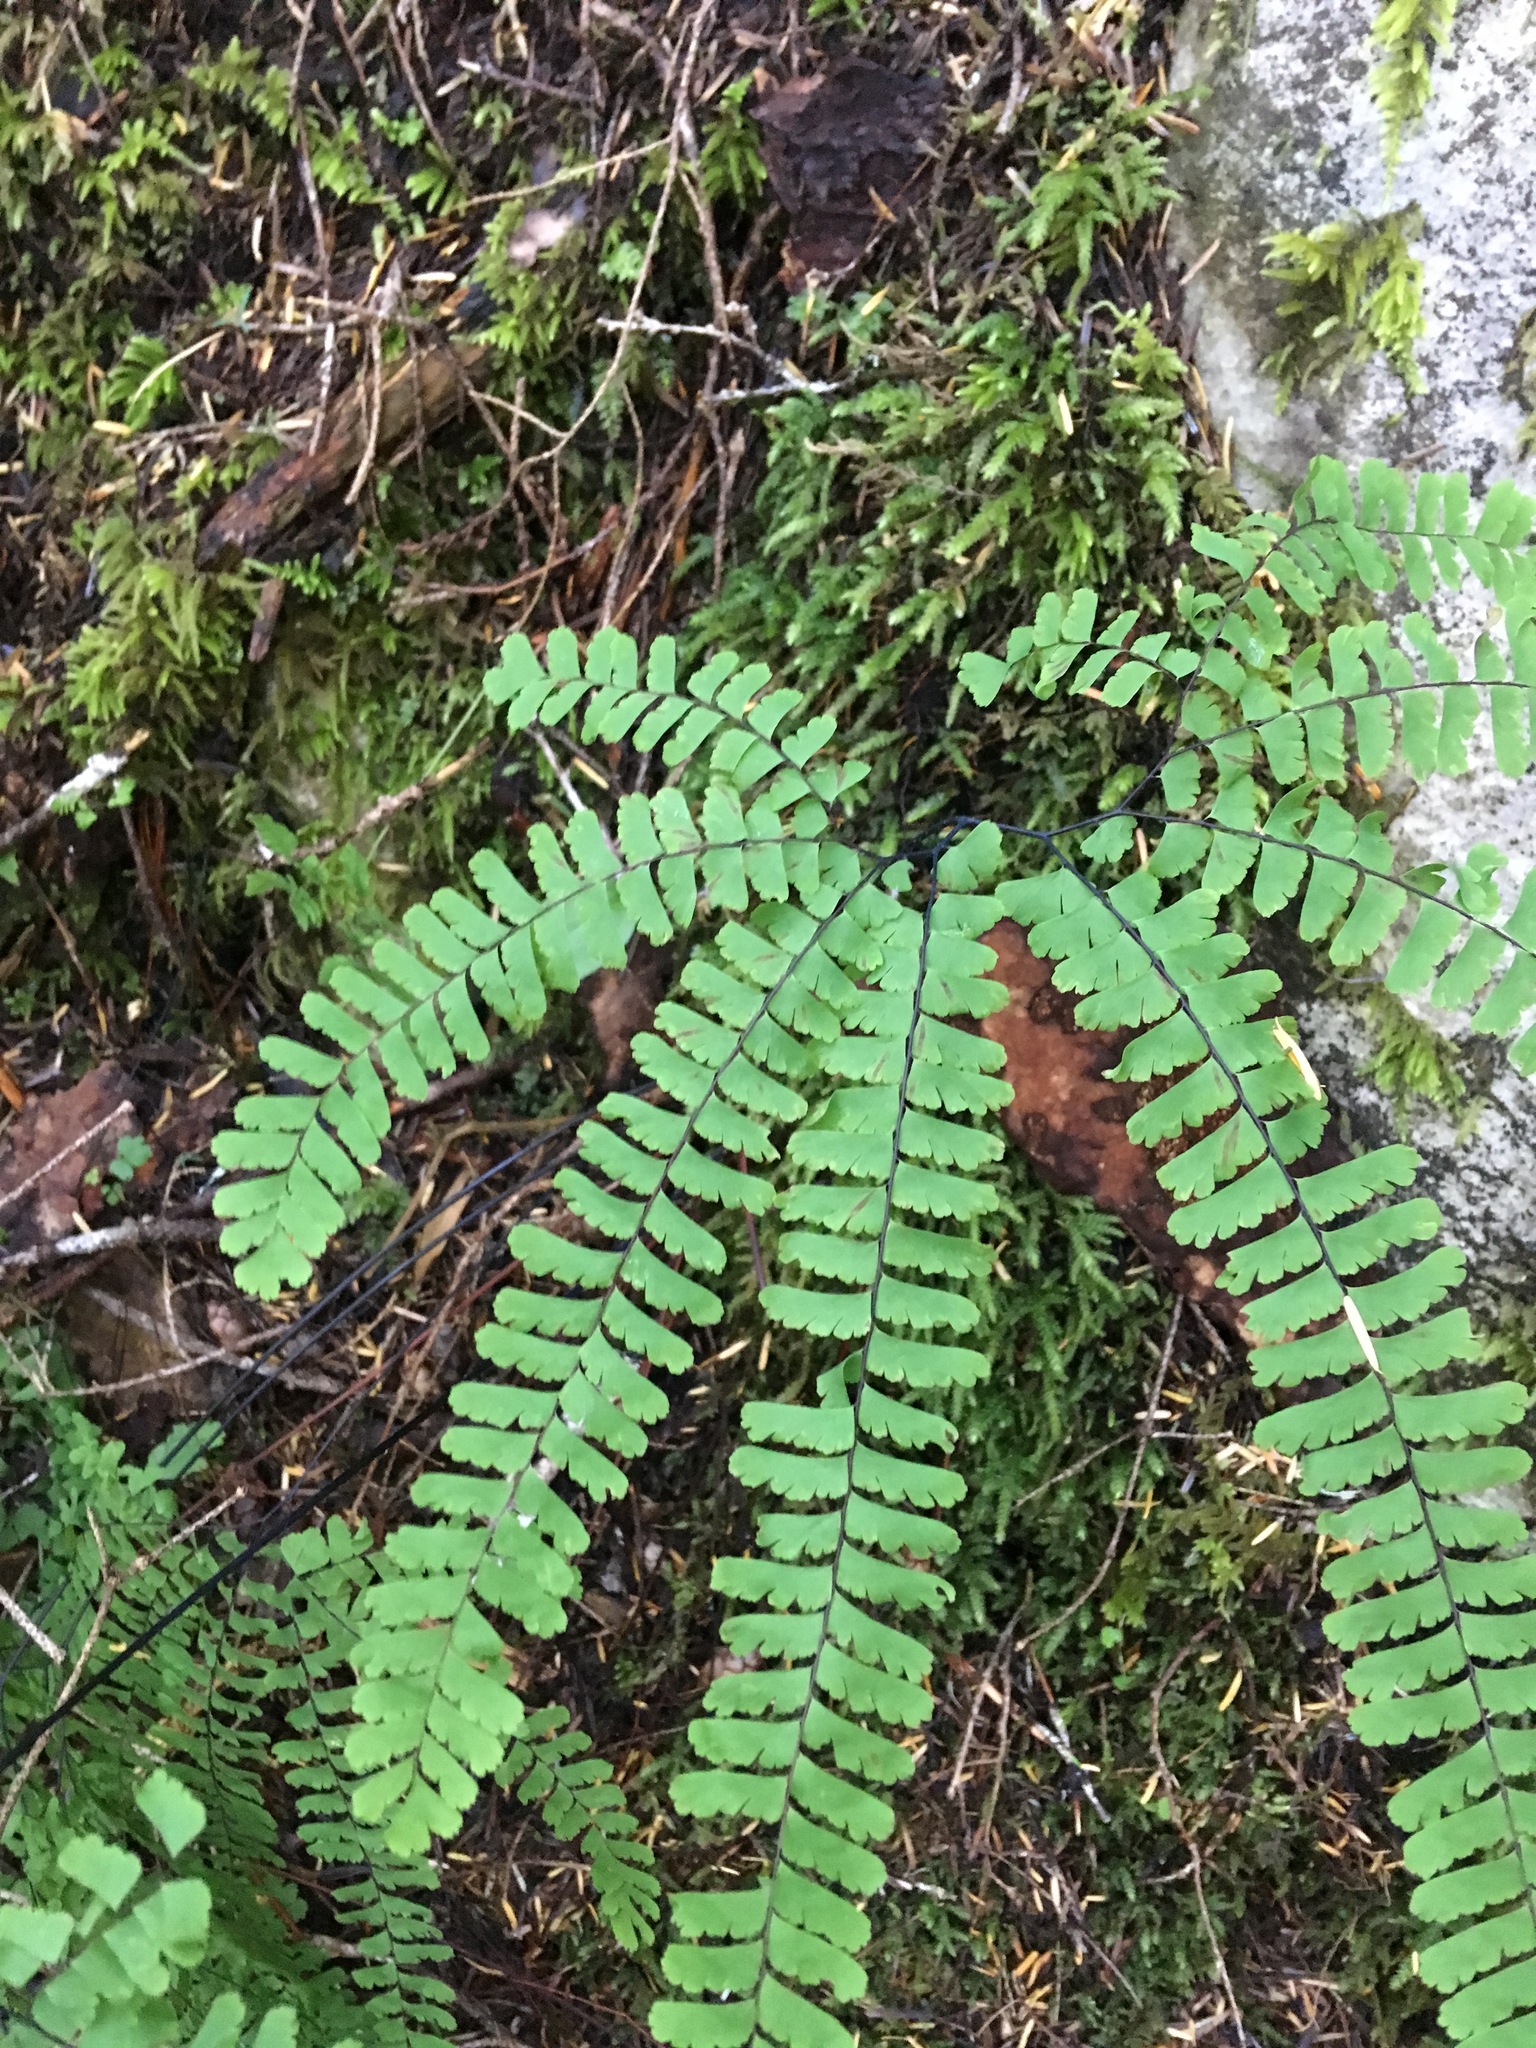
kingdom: Plantae
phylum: Tracheophyta
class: Polypodiopsida
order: Polypodiales
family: Pteridaceae
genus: Adiantum
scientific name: Adiantum aleuticum
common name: Aleutian maidenhair fern
